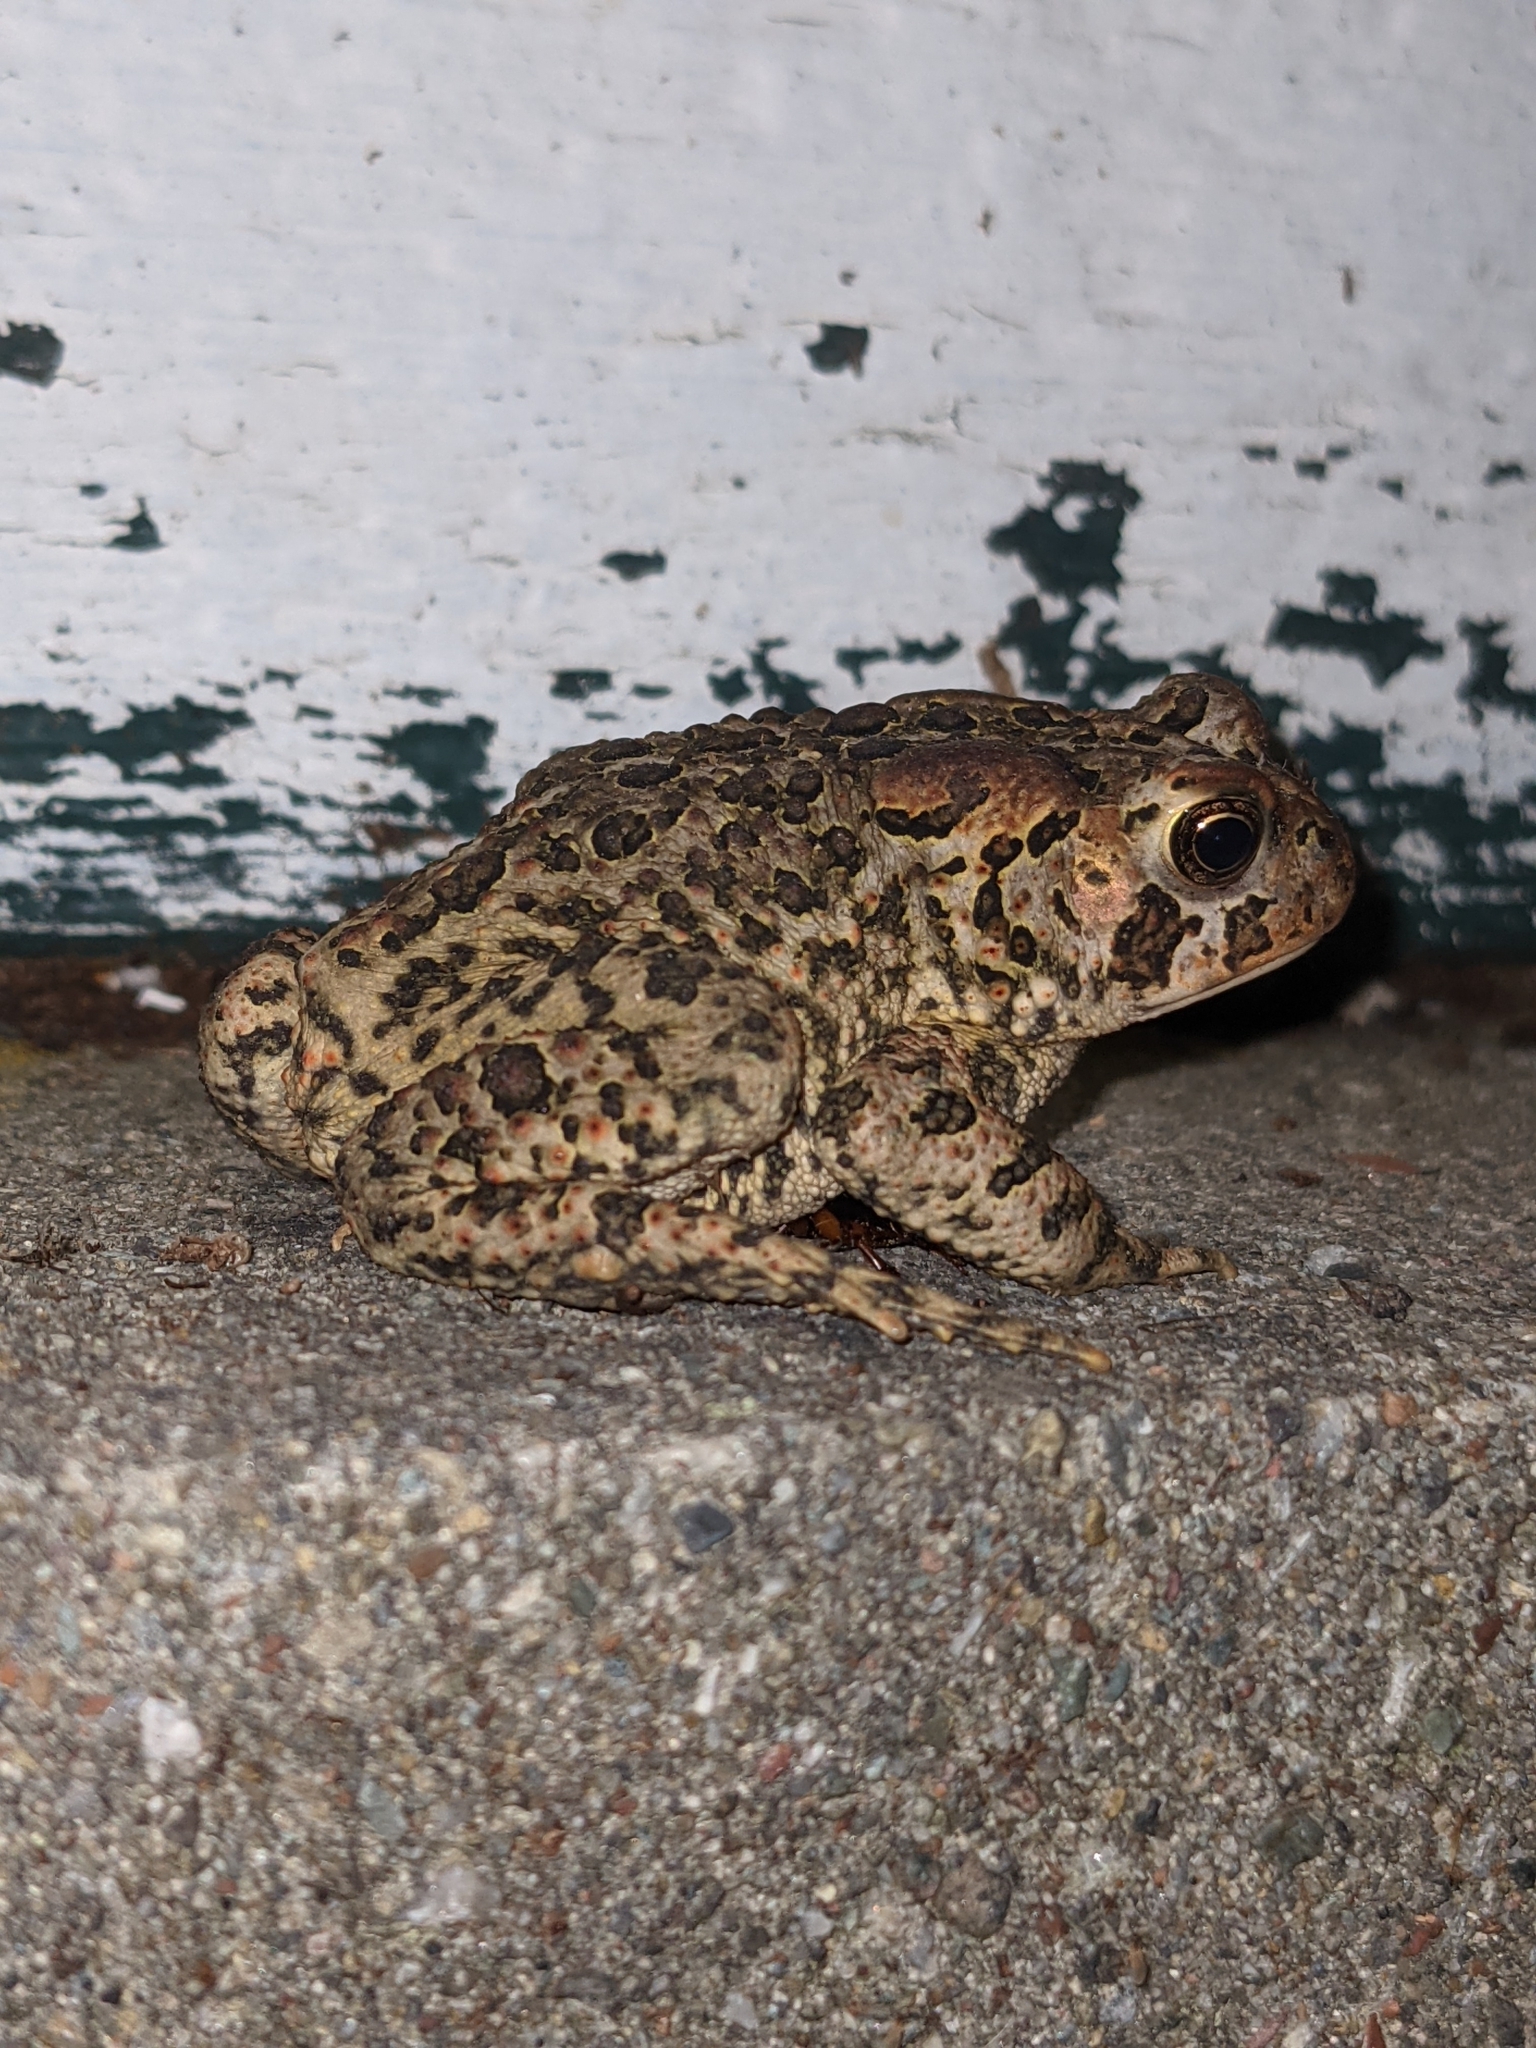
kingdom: Animalia
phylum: Chordata
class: Amphibia
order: Anura
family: Bufonidae
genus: Anaxyrus
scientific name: Anaxyrus americanus
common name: American toad
